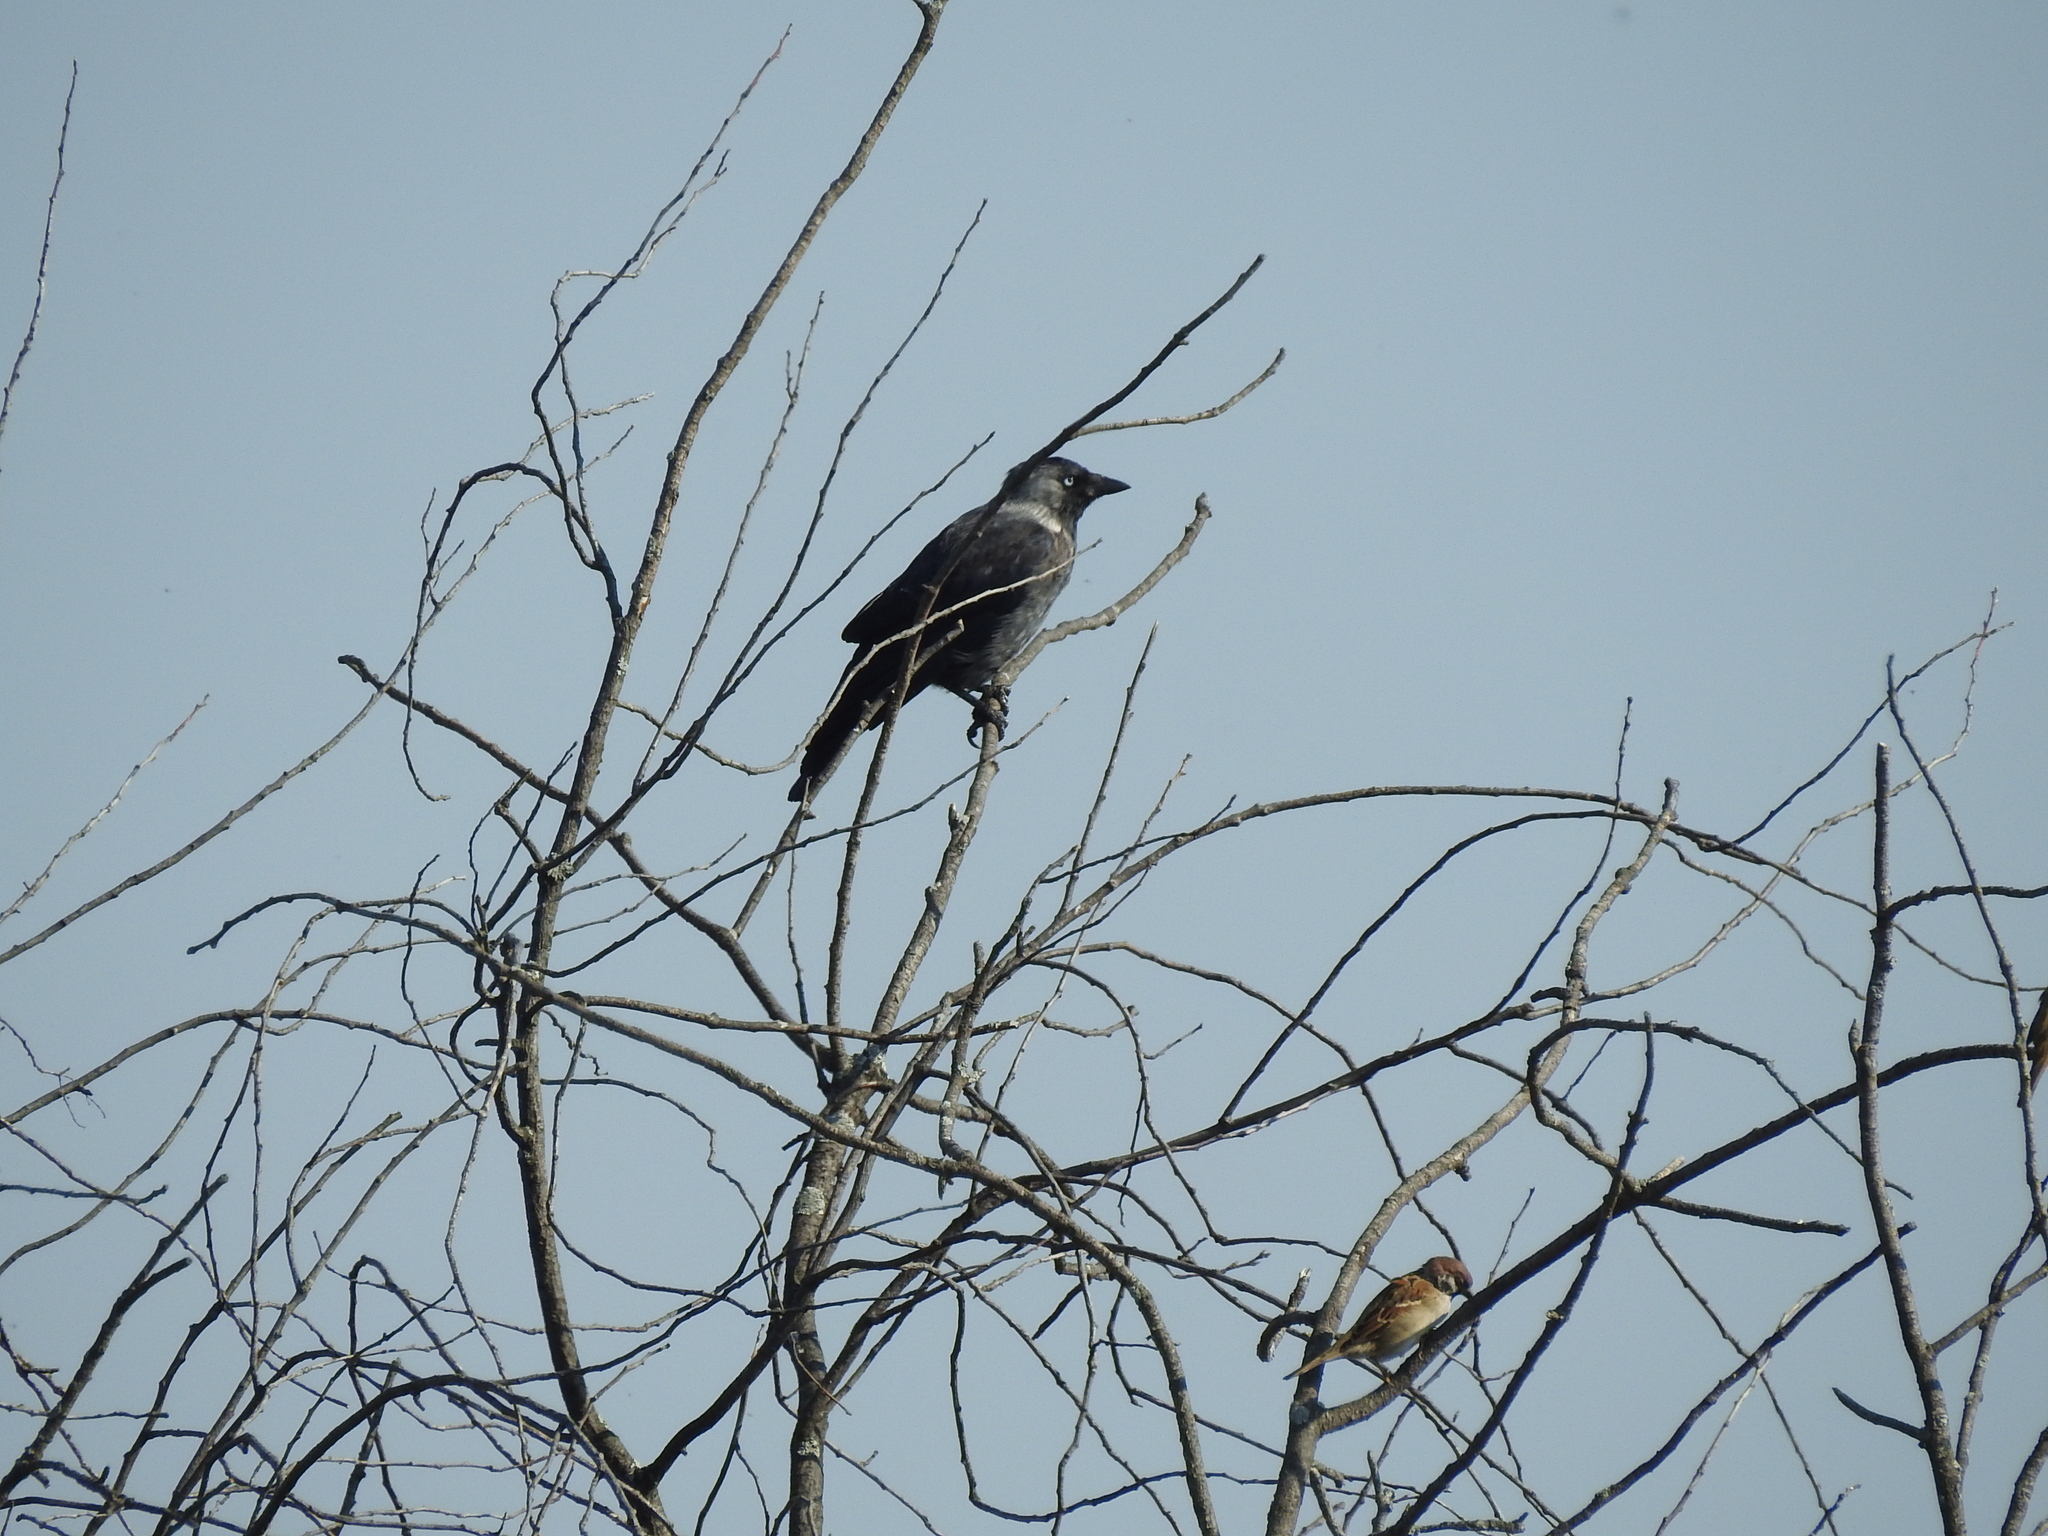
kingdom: Animalia
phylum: Chordata
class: Aves
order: Passeriformes
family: Corvidae
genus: Coloeus
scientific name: Coloeus monedula
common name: Western jackdaw
